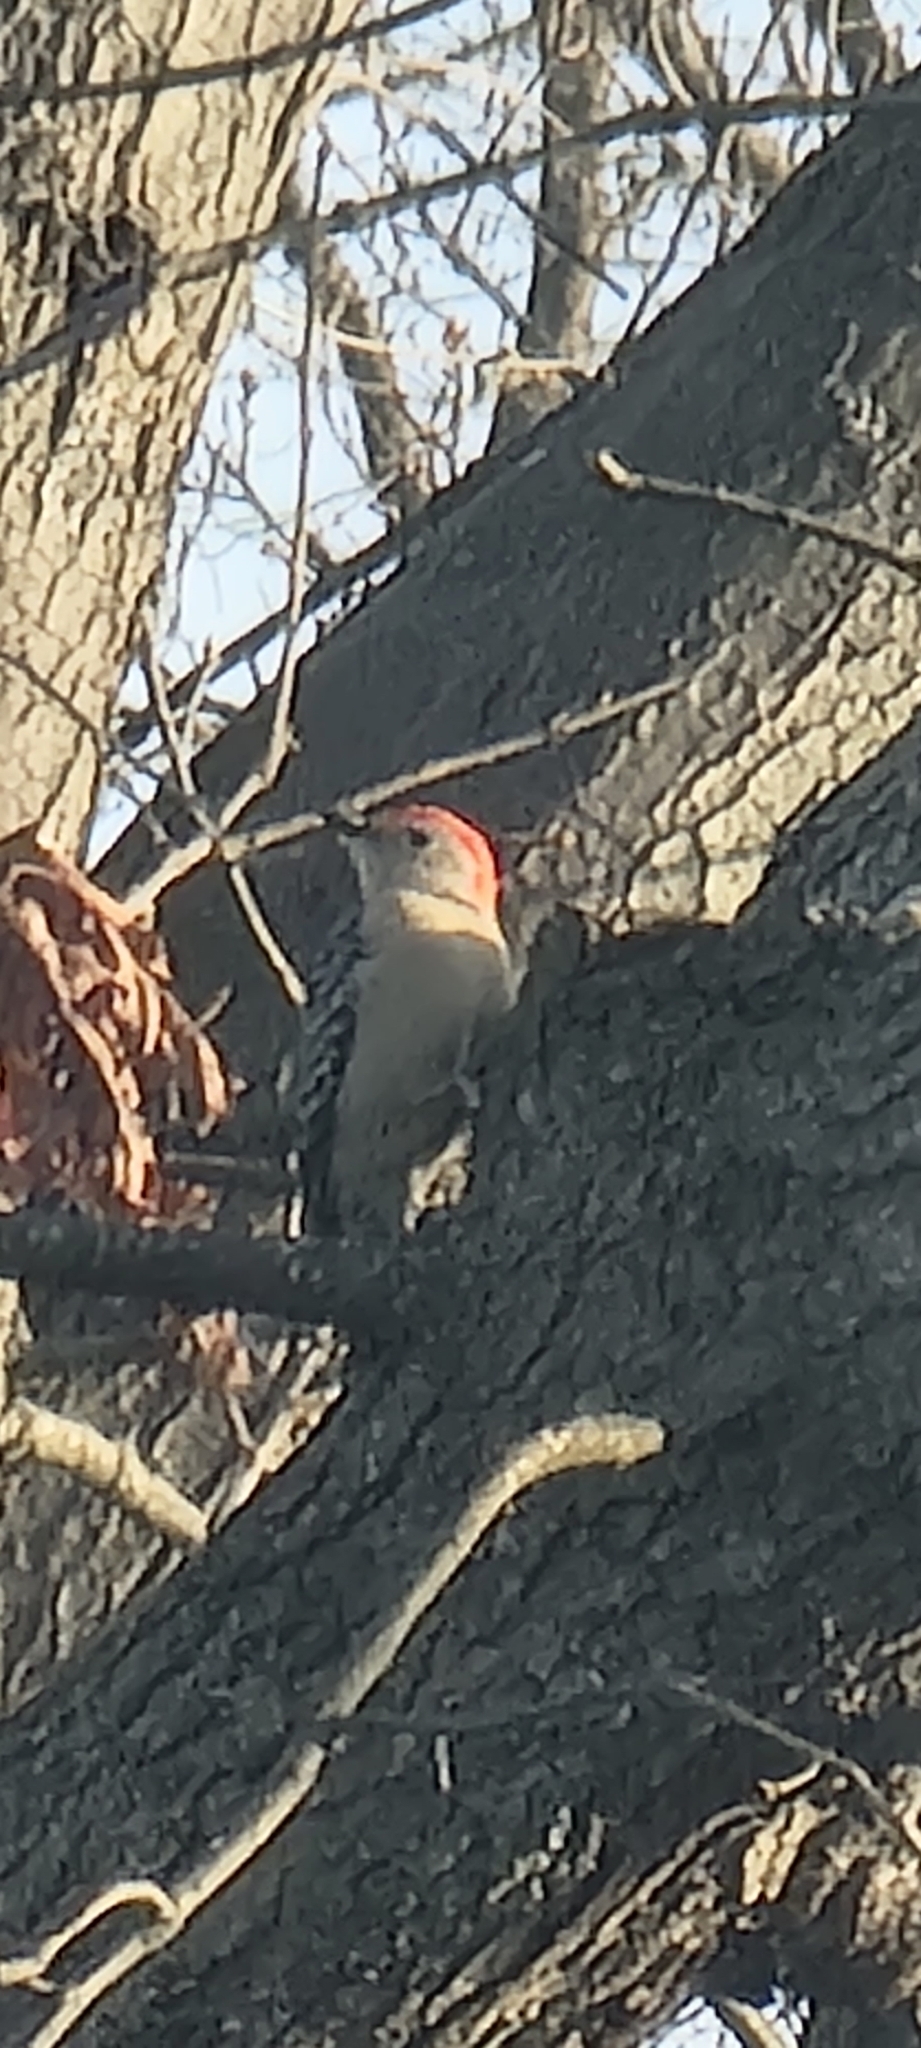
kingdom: Animalia
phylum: Chordata
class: Aves
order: Piciformes
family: Picidae
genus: Melanerpes
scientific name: Melanerpes carolinus
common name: Red-bellied woodpecker
